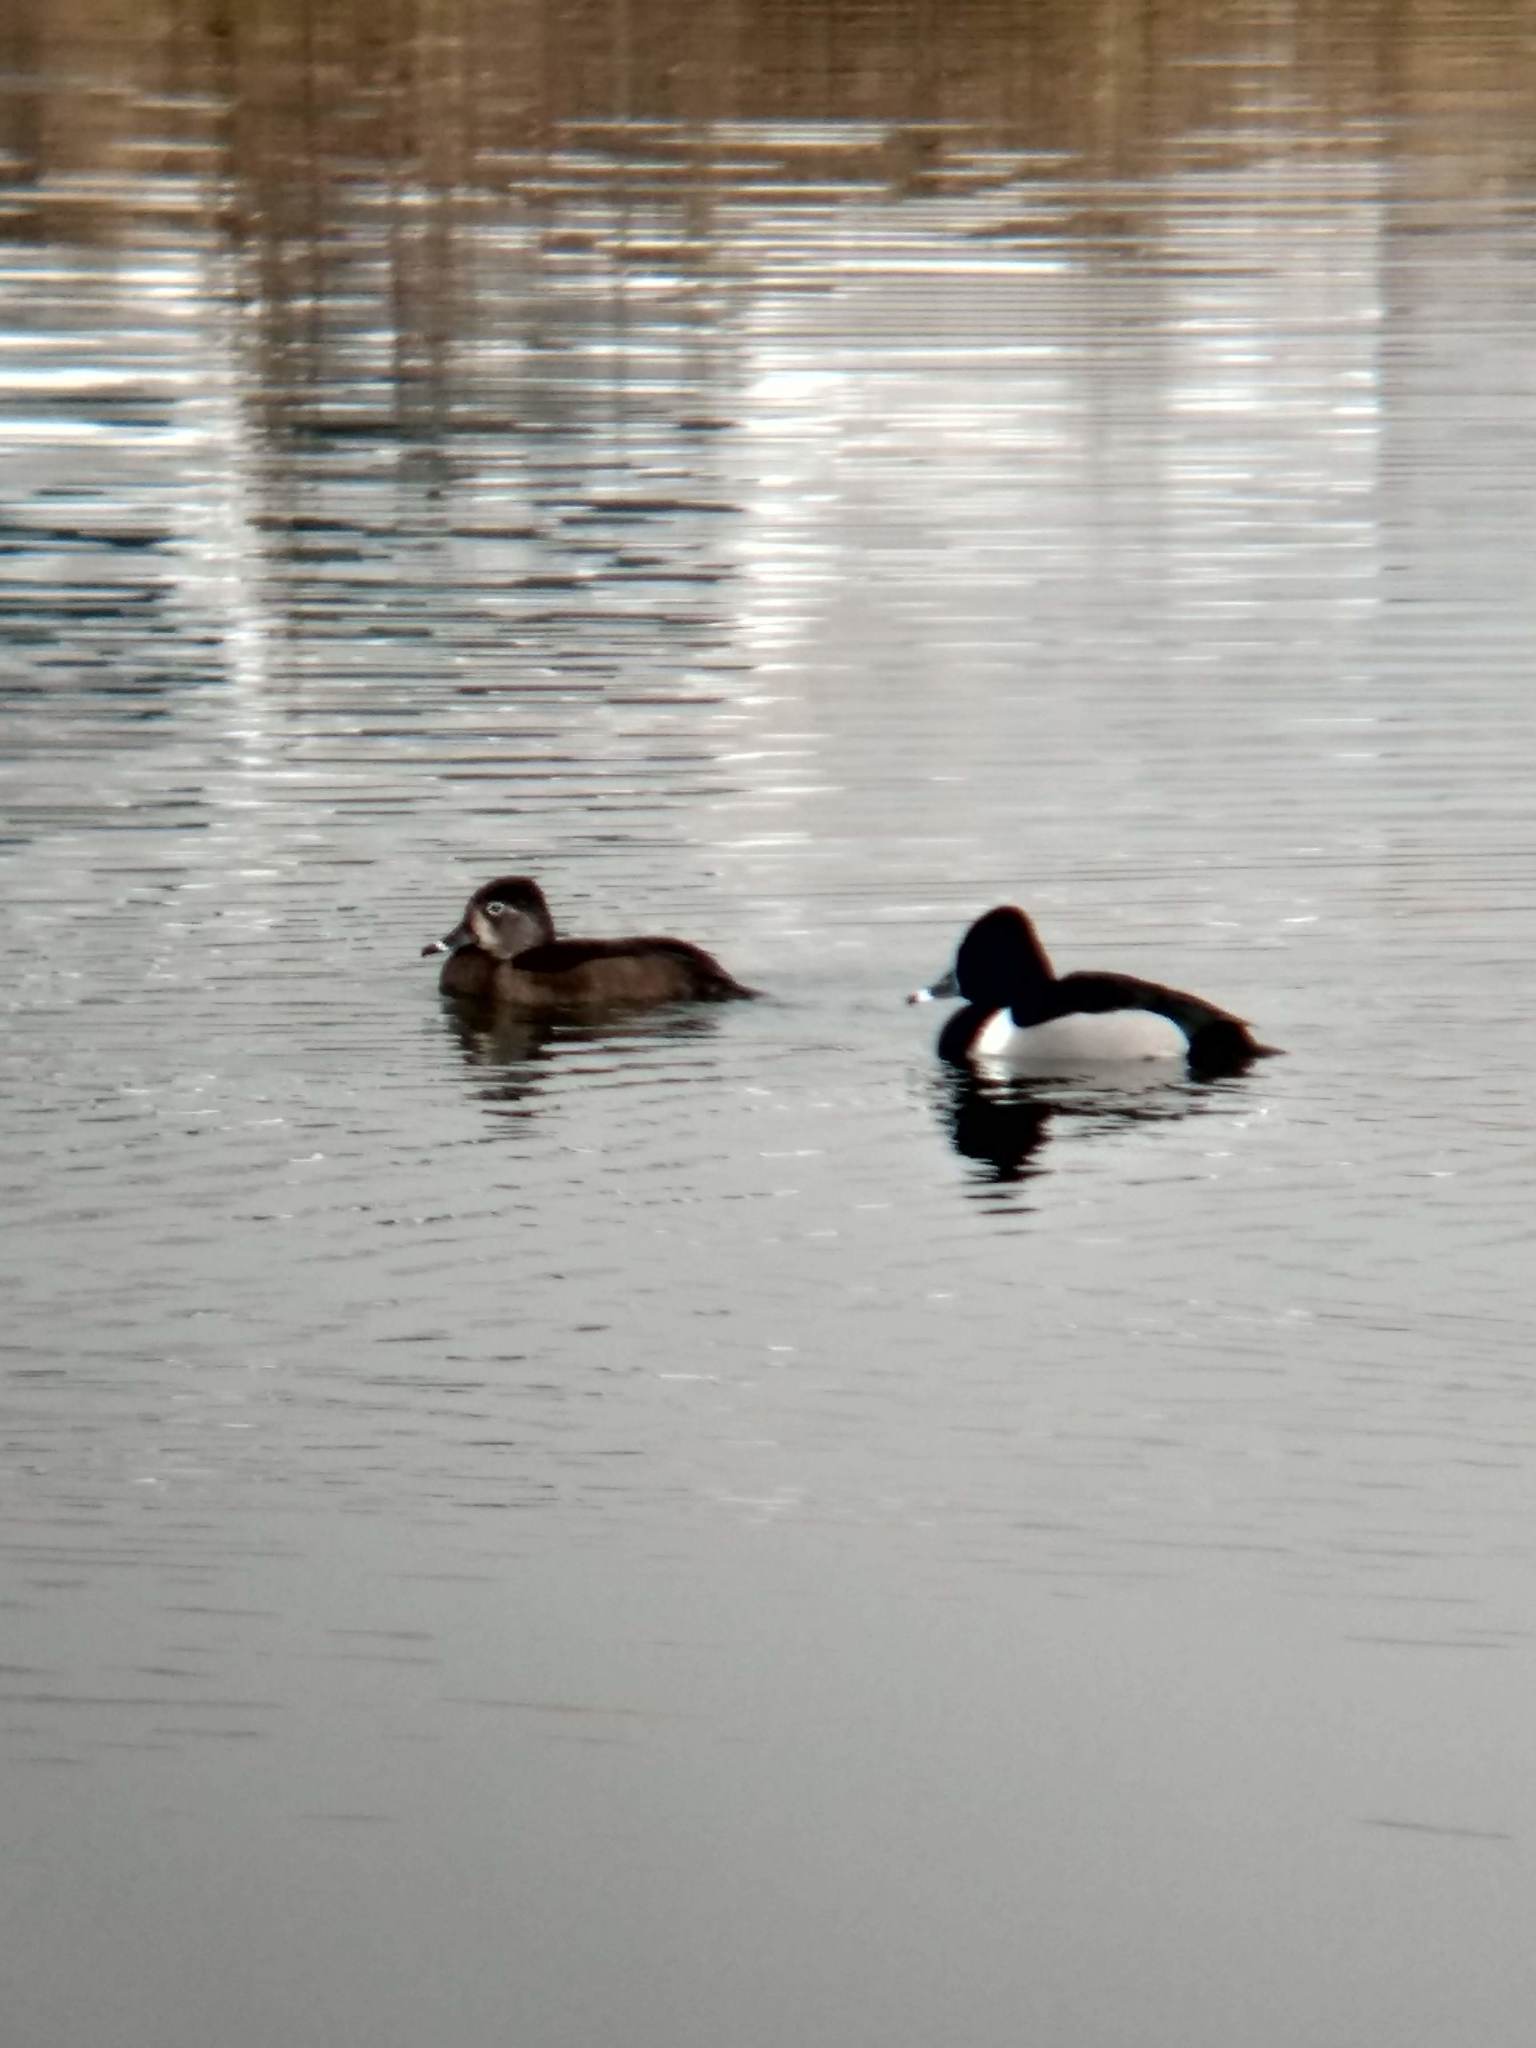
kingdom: Animalia
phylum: Chordata
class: Aves
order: Anseriformes
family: Anatidae
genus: Aythya
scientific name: Aythya collaris
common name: Ring-necked duck
